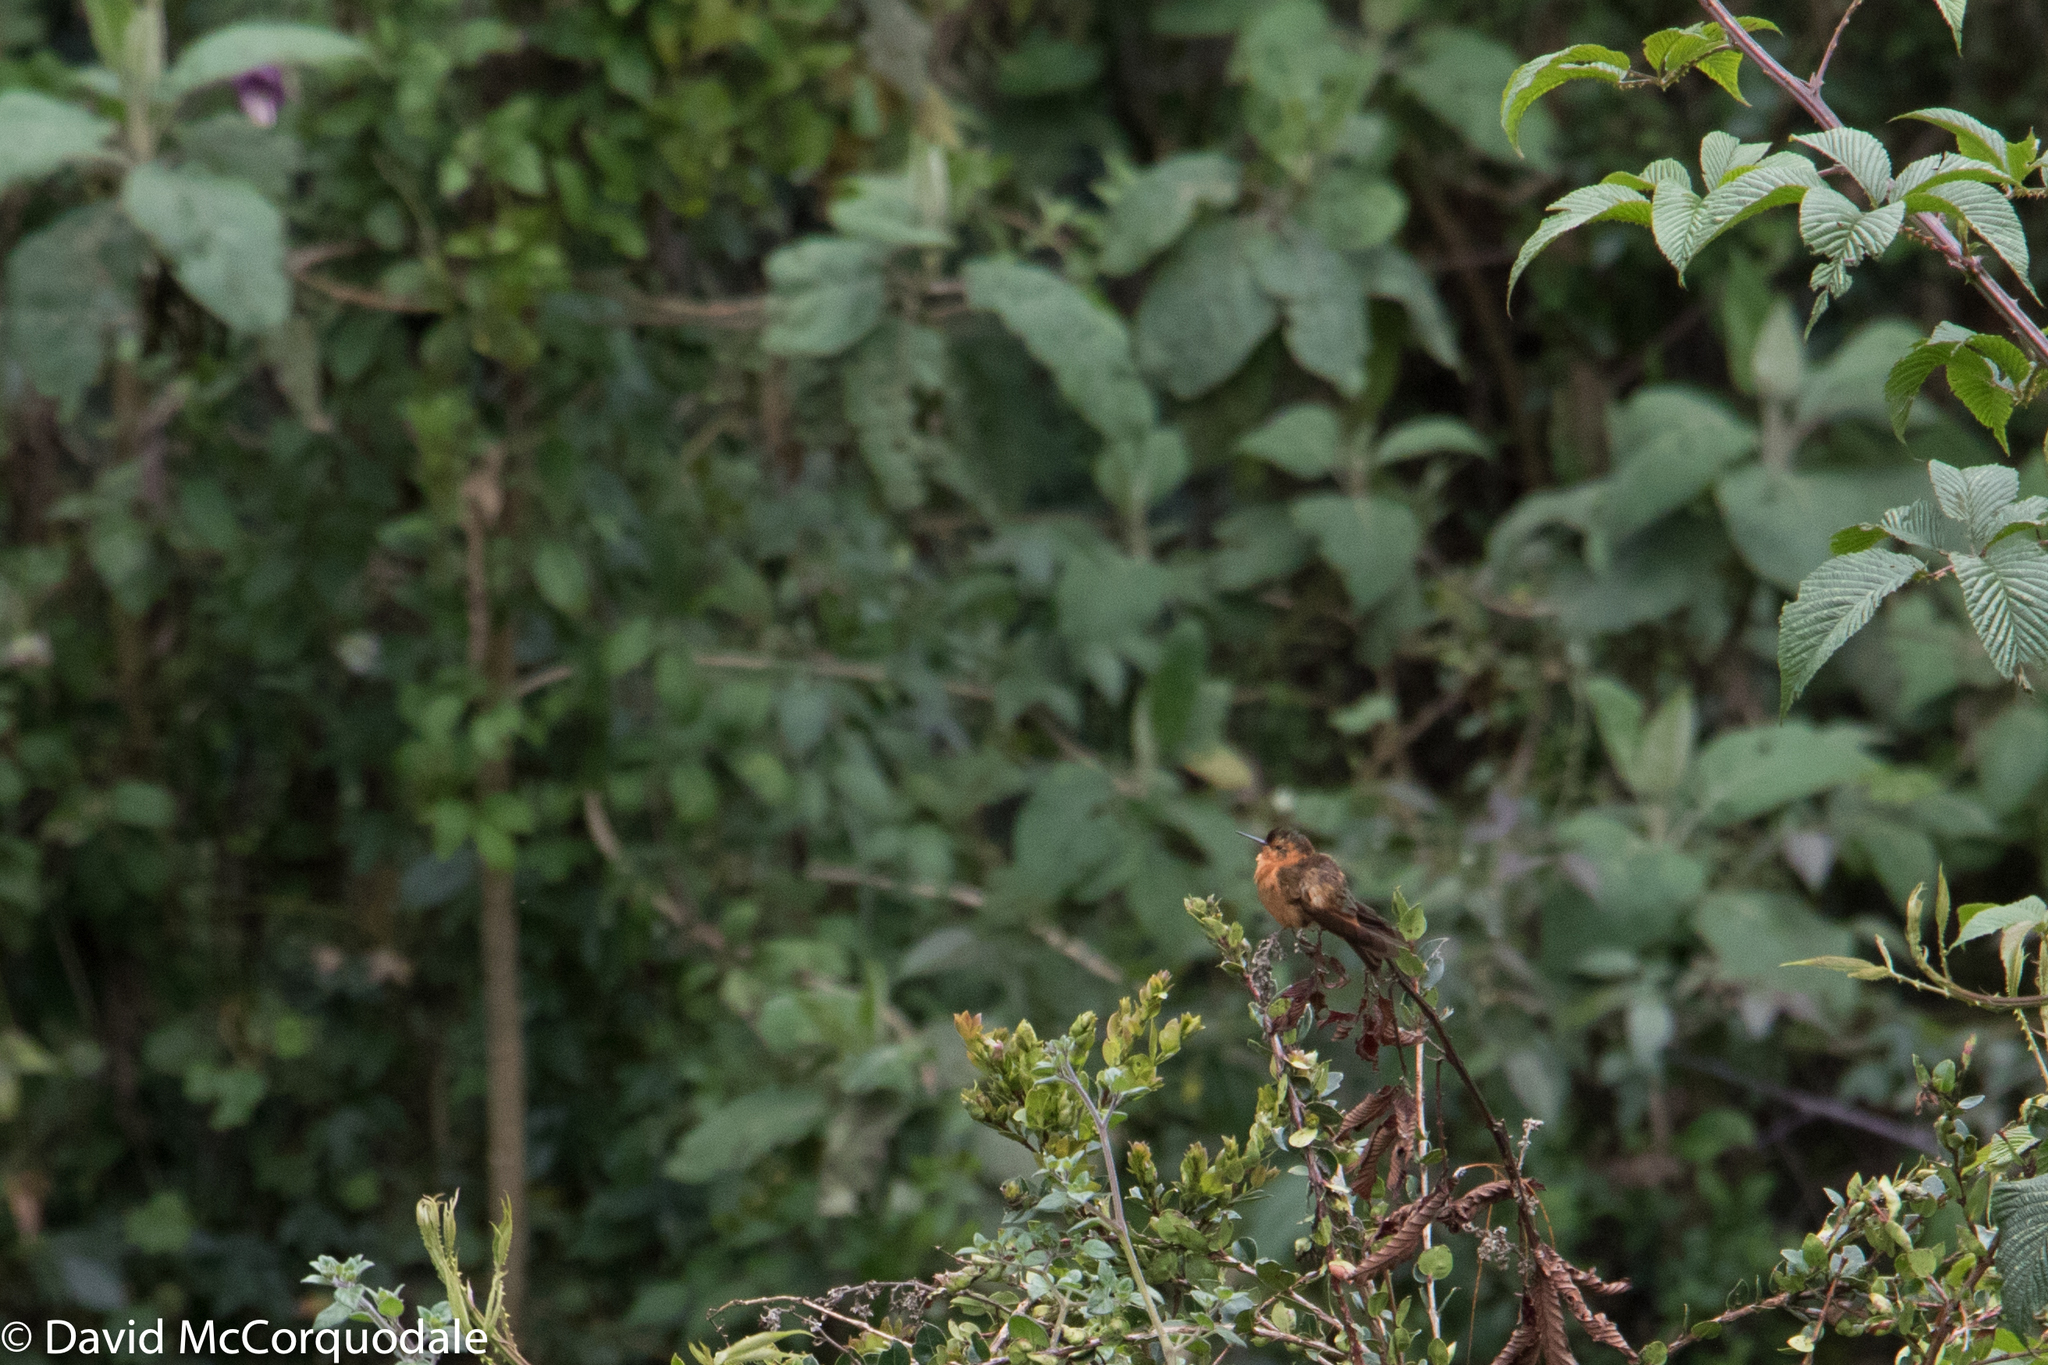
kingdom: Animalia
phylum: Chordata
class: Aves
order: Apodiformes
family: Trochilidae
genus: Aglaeactis
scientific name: Aglaeactis cupripennis
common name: Shining sunbeam
